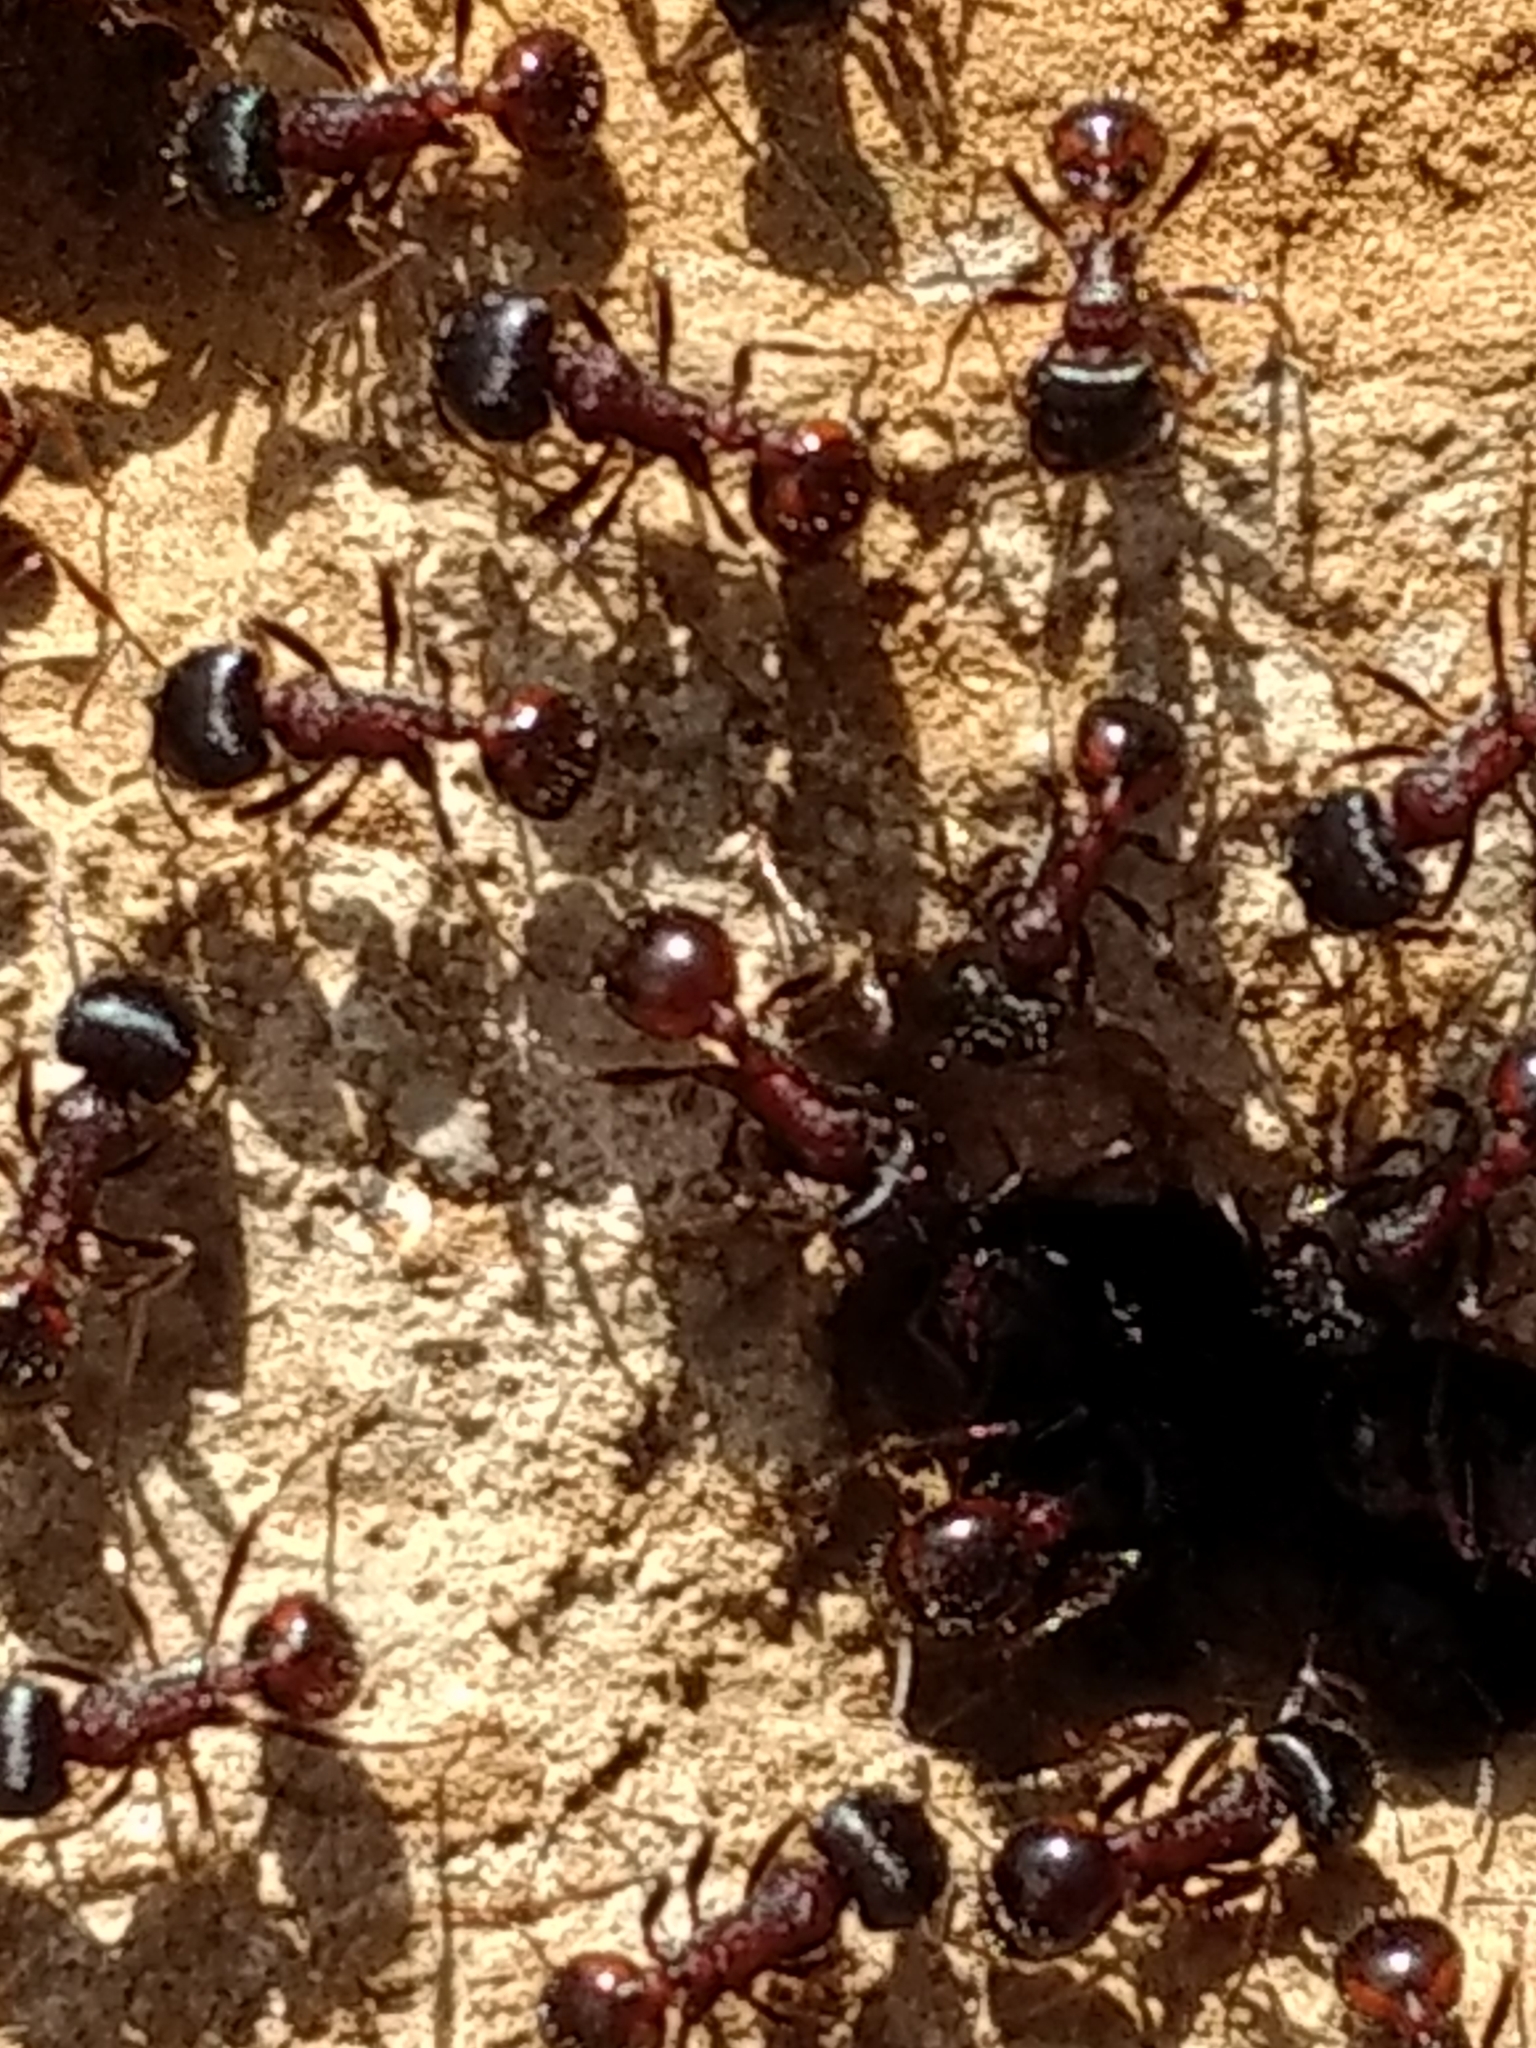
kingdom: Animalia
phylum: Arthropoda
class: Insecta
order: Hymenoptera
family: Formicidae
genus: Pogonomyrmex
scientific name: Pogonomyrmex rugosus
